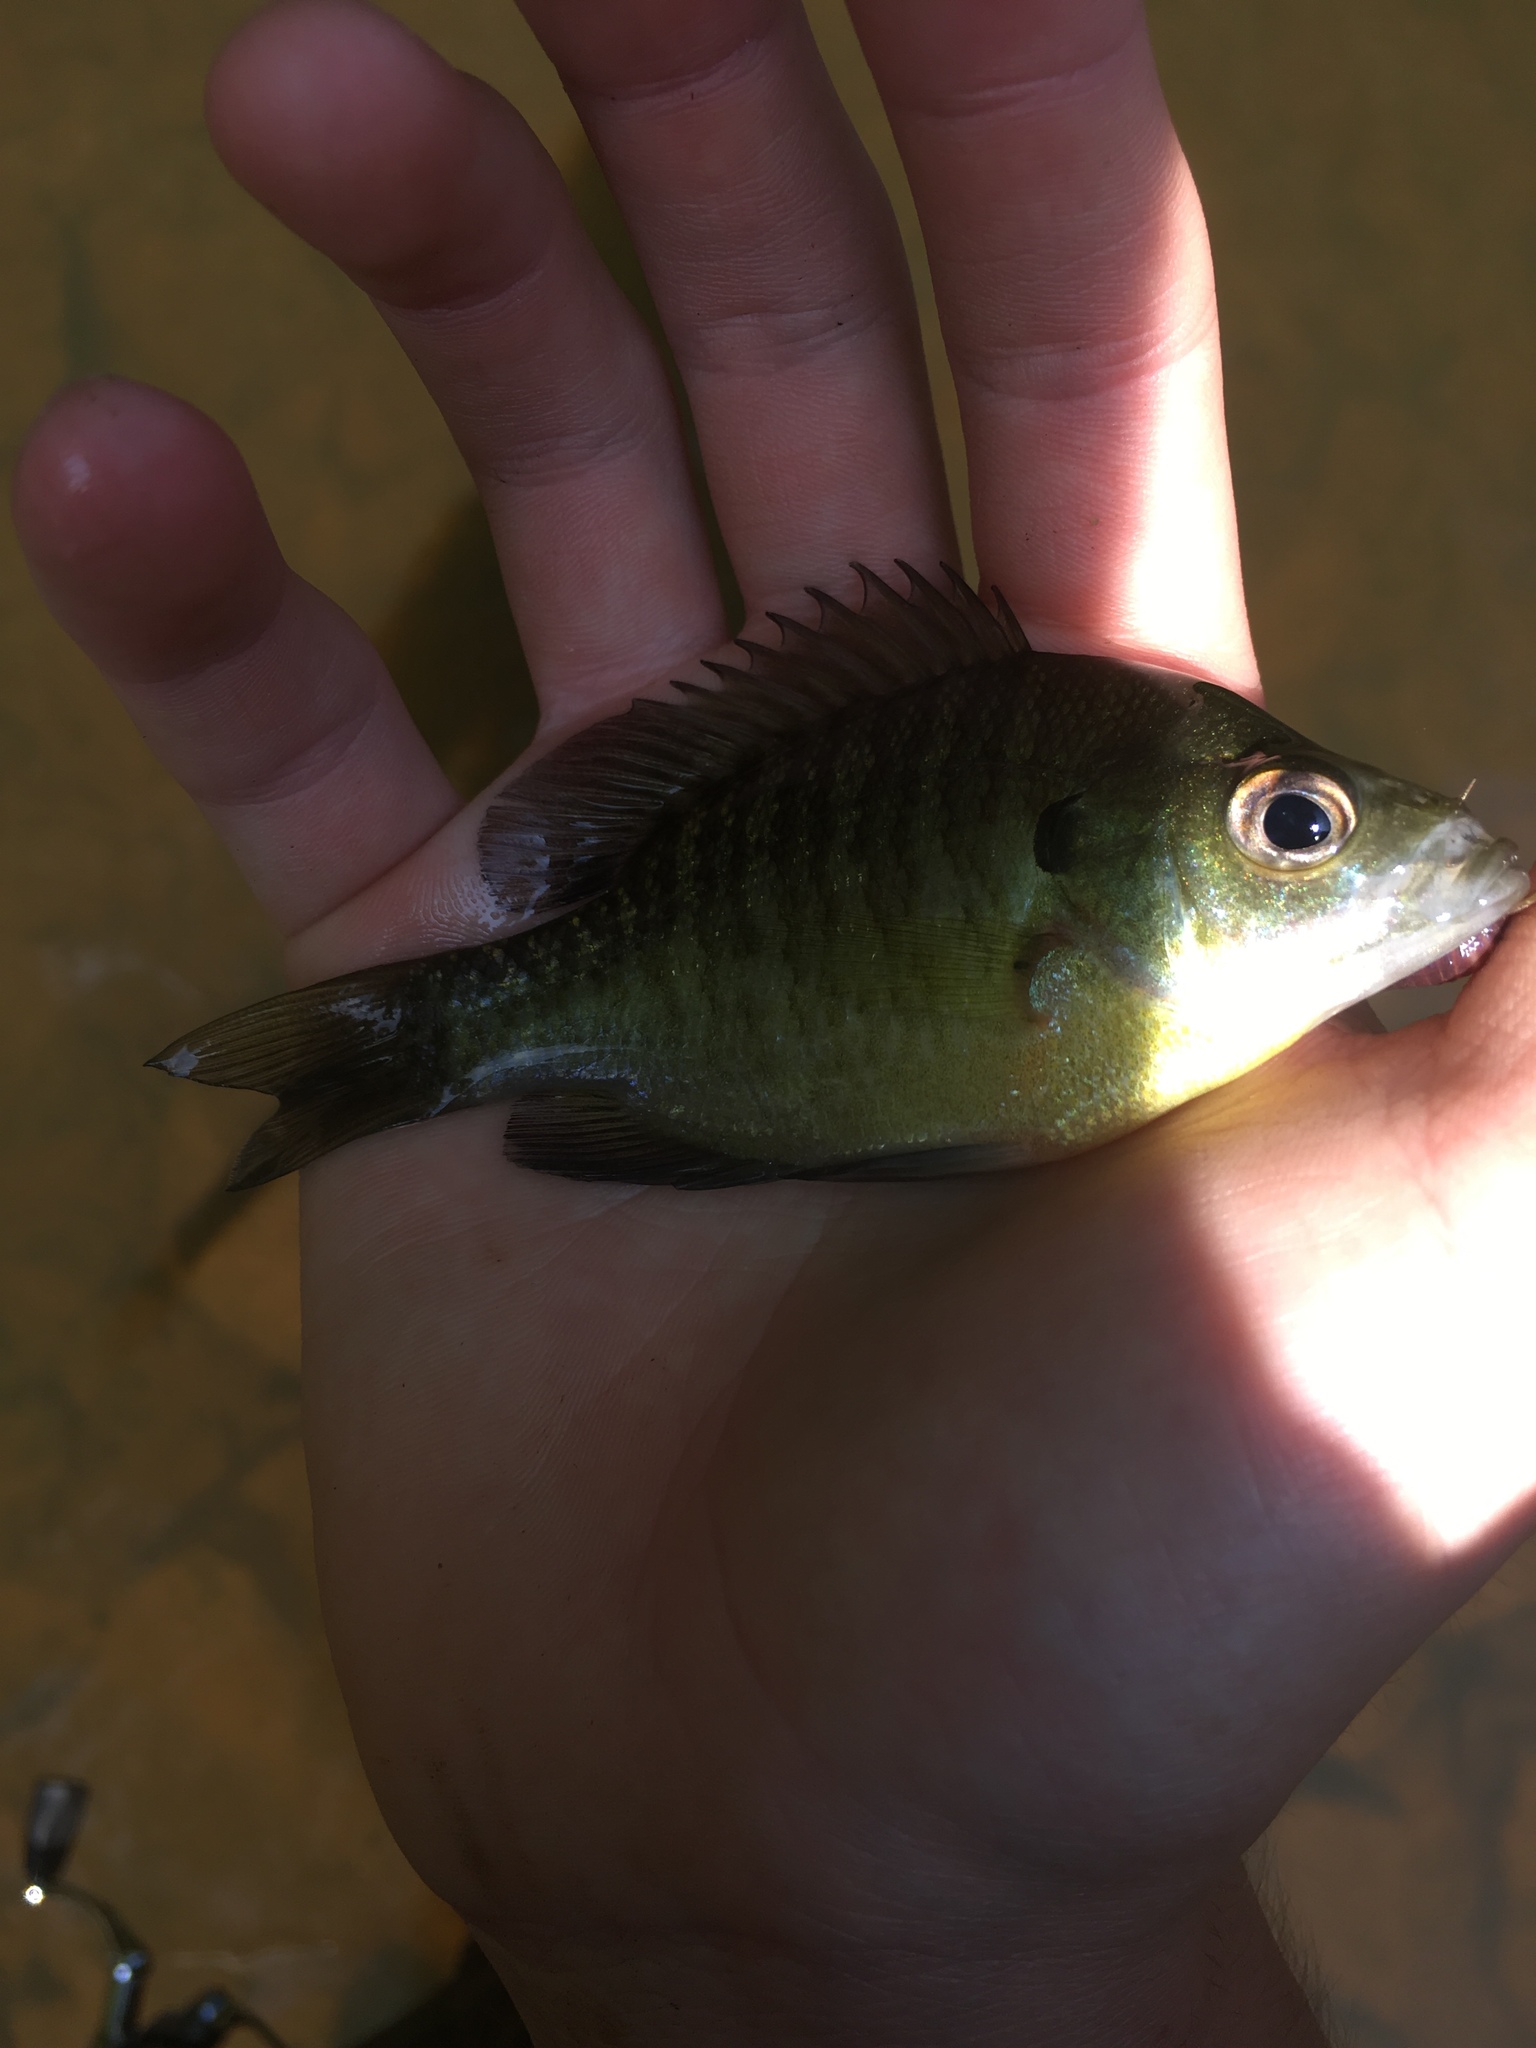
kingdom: Animalia
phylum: Chordata
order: Perciformes
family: Centrarchidae
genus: Lepomis
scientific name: Lepomis macrochirus
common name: Bluegill
